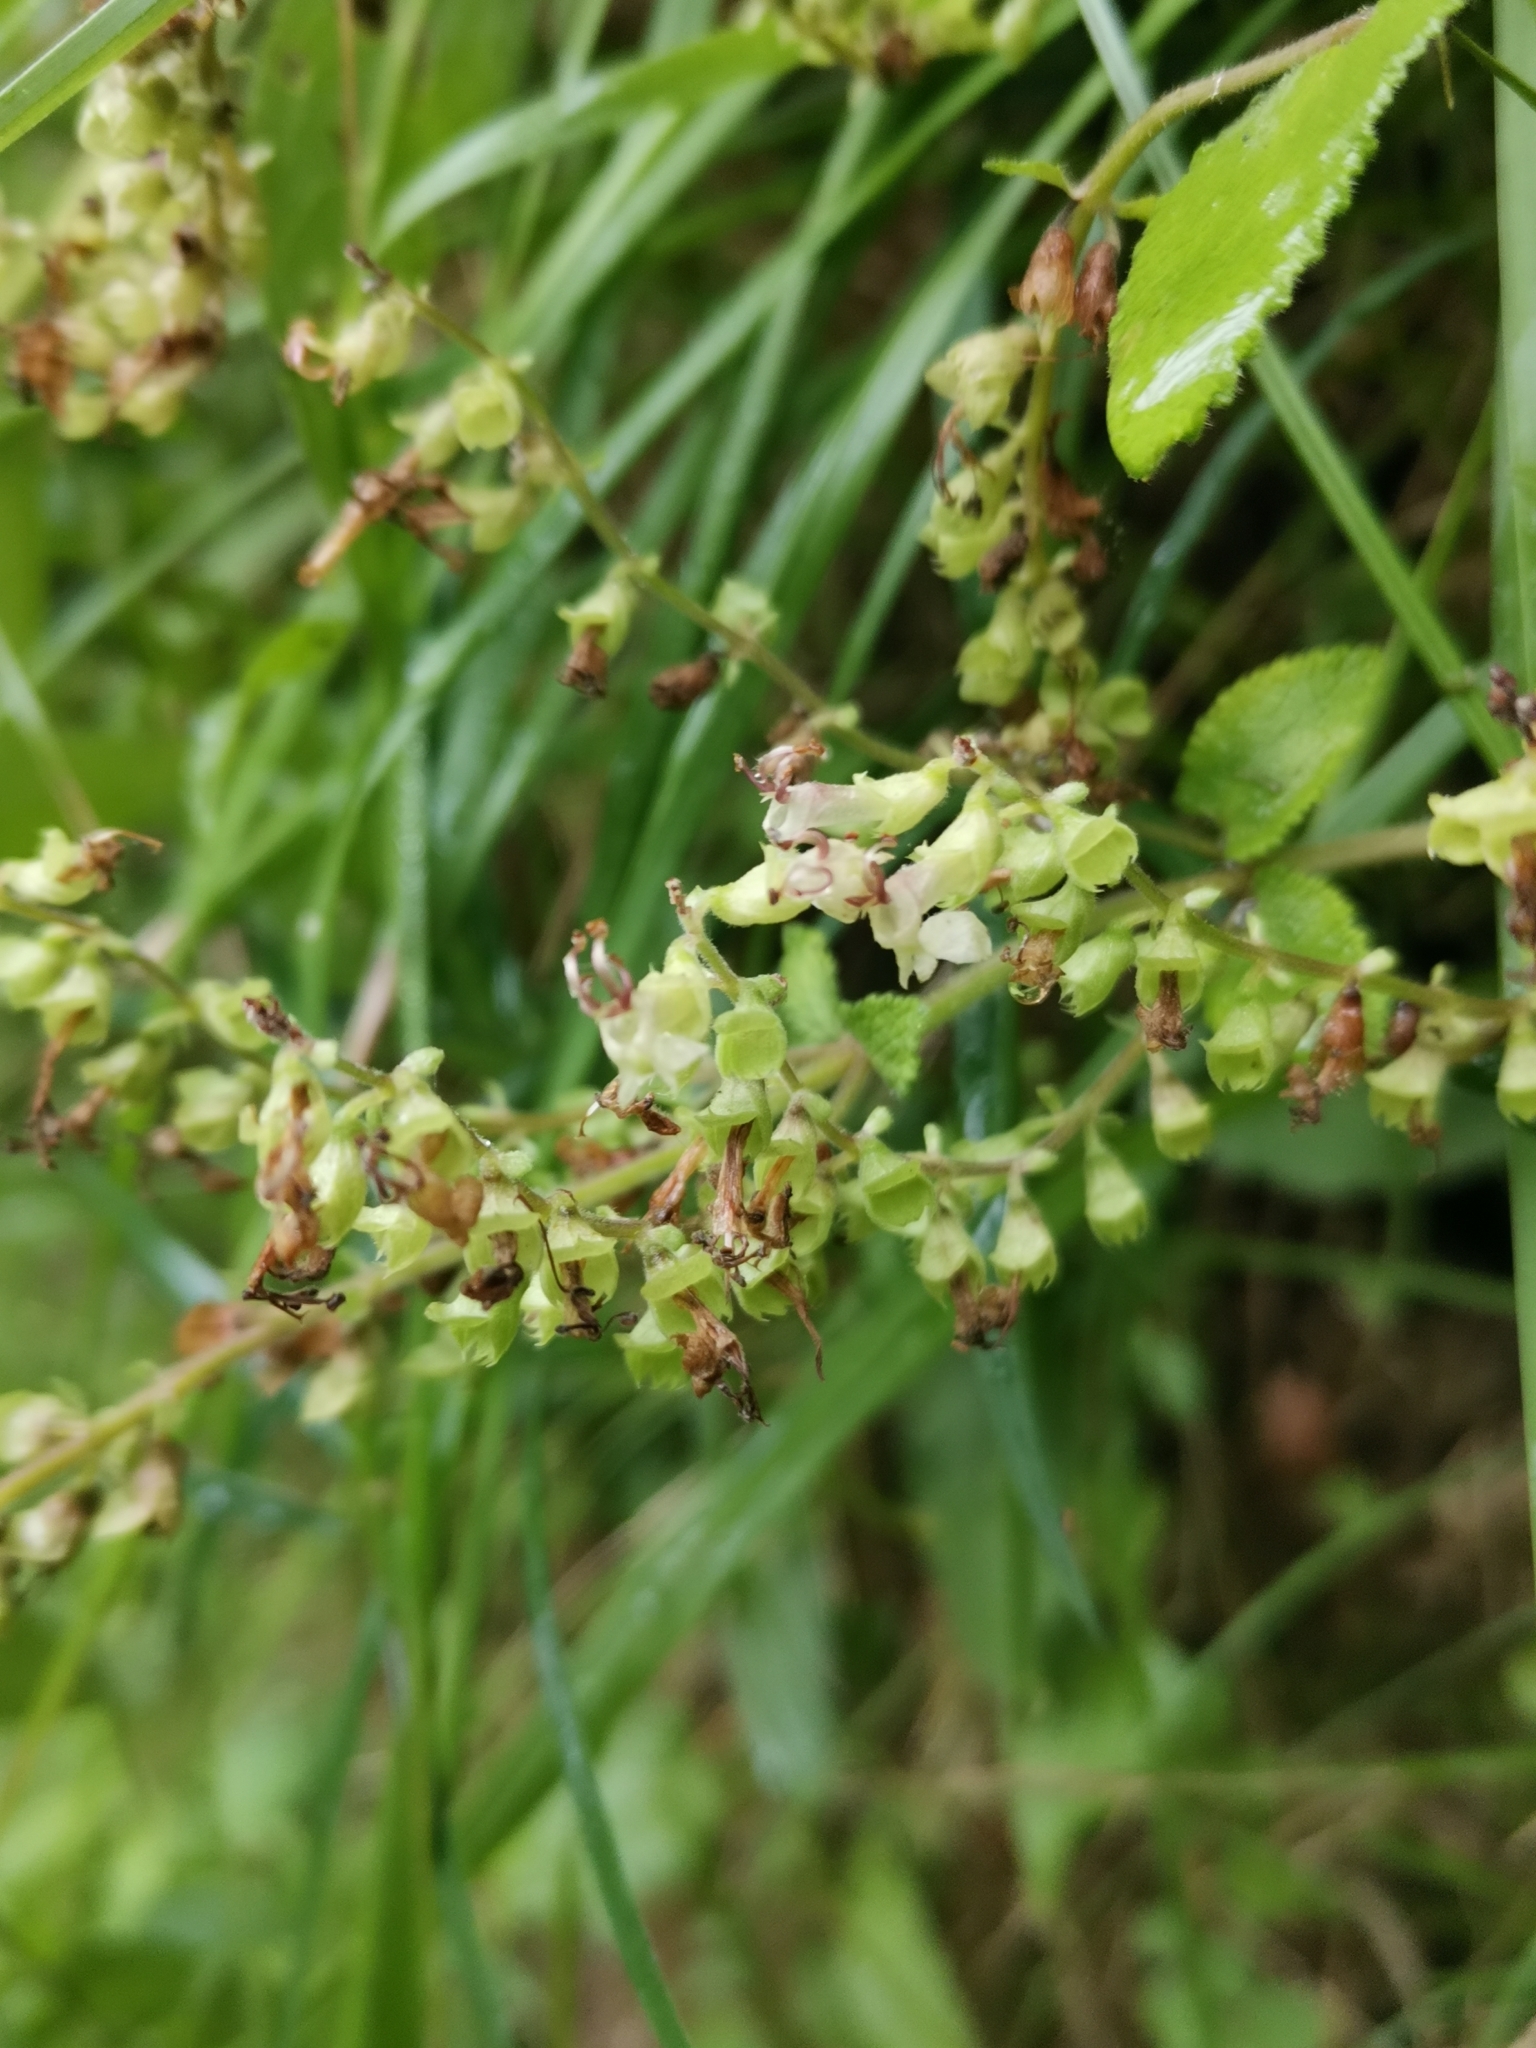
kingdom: Plantae
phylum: Tracheophyta
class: Magnoliopsida
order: Lamiales
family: Lamiaceae
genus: Teucrium
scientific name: Teucrium scorodonia
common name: Woodland germander
